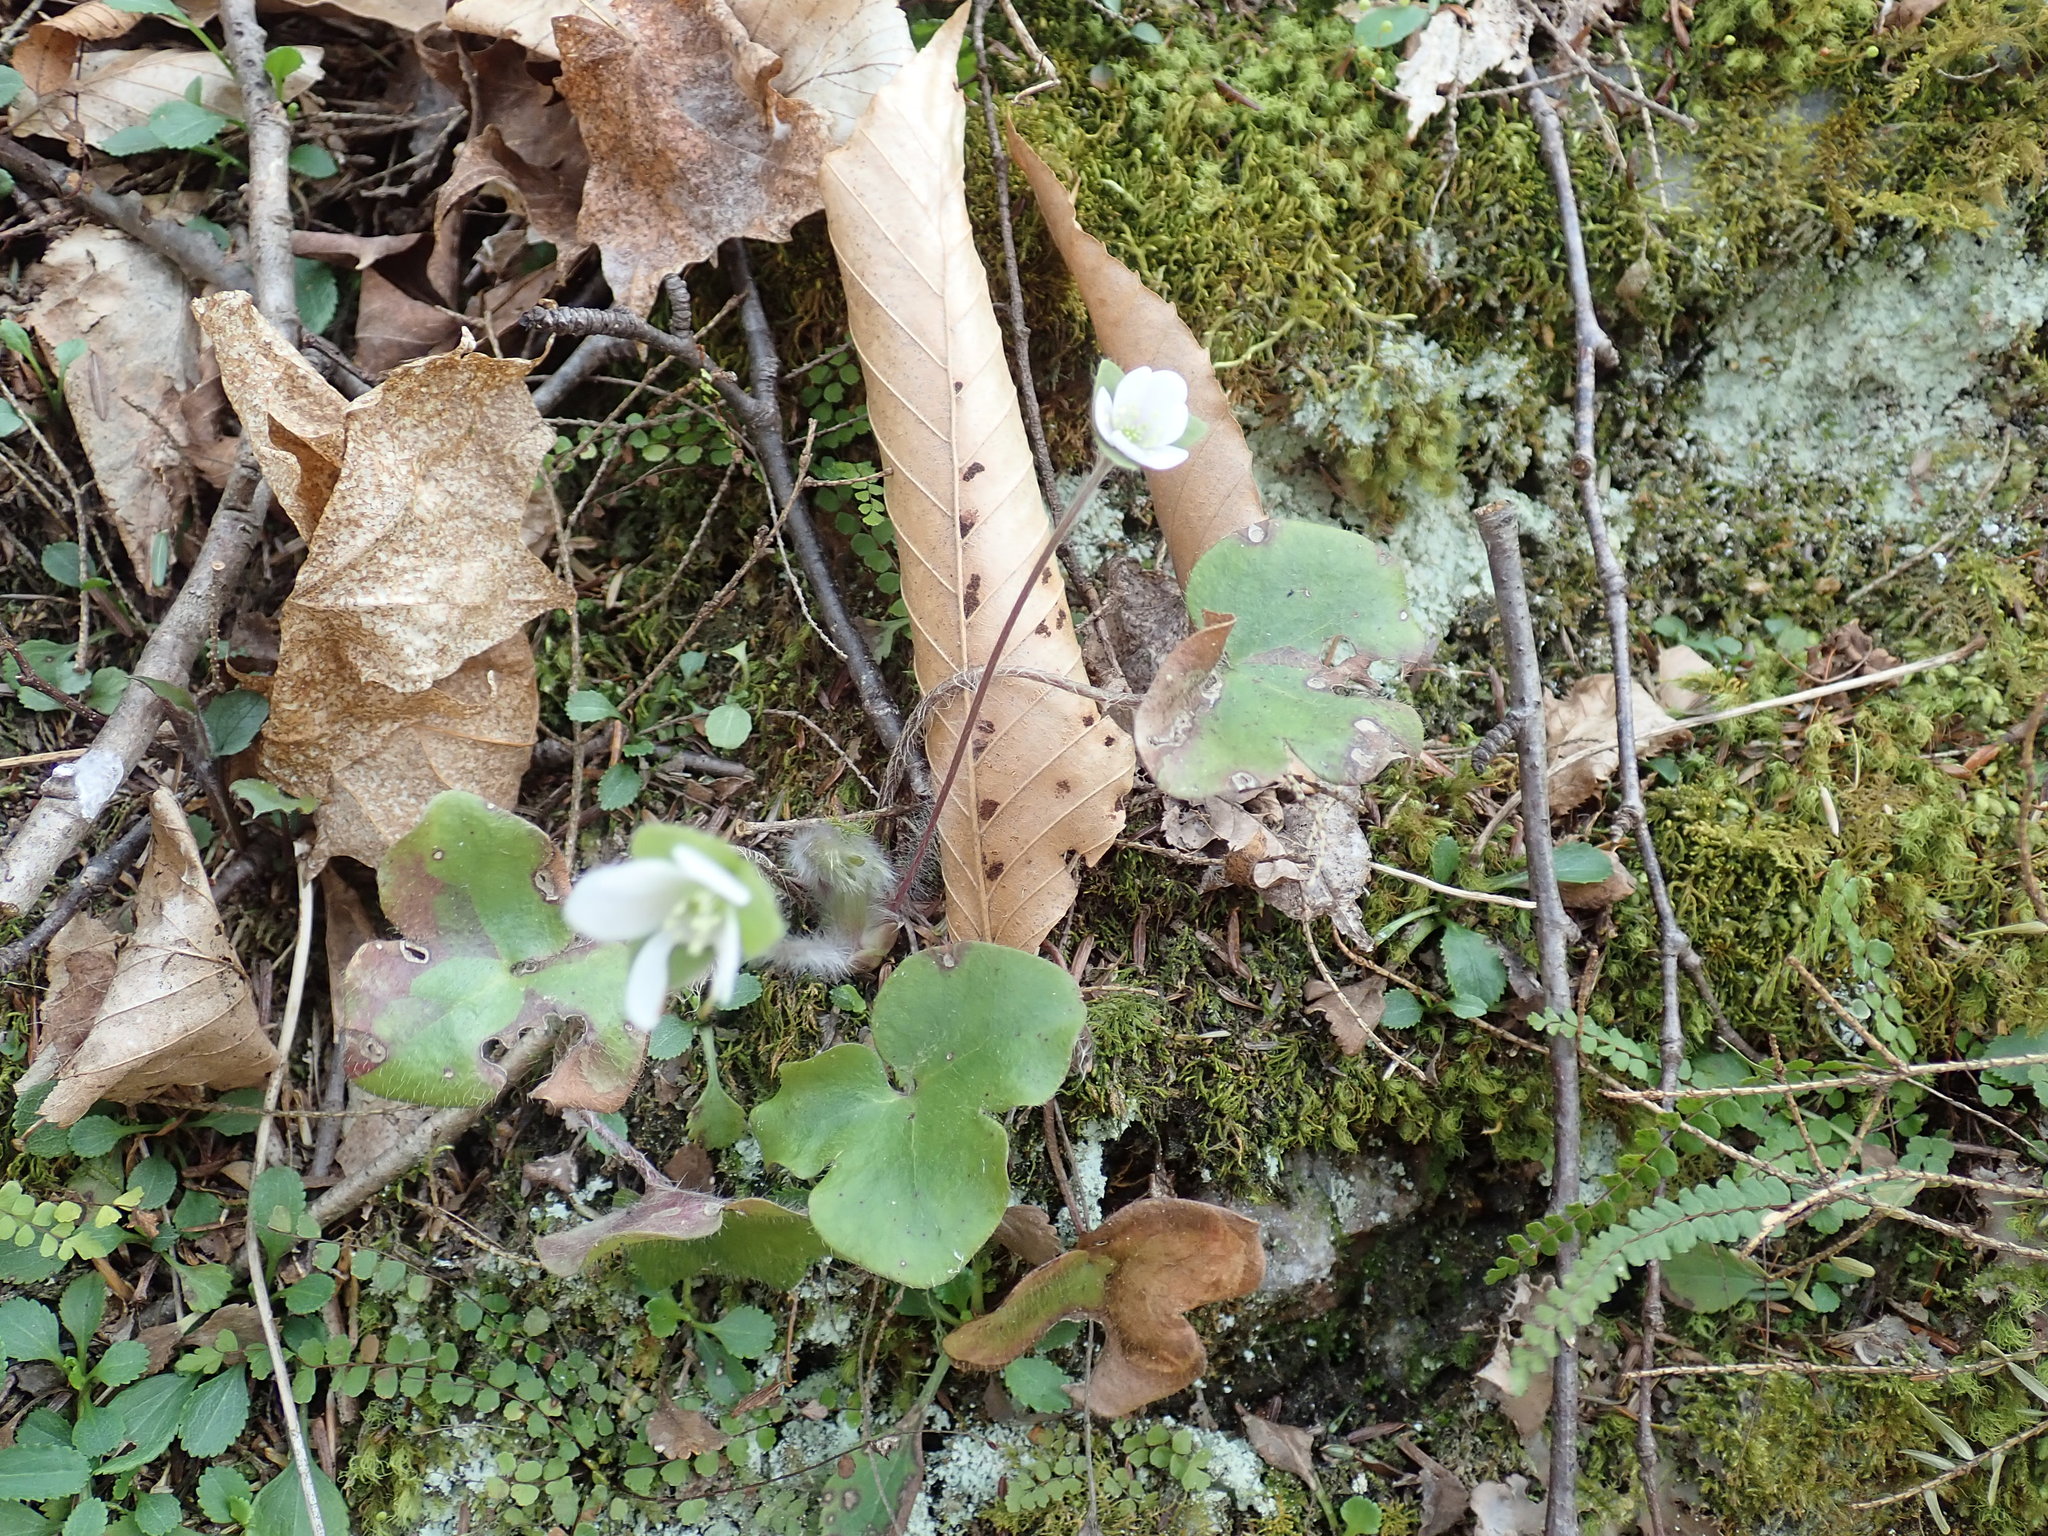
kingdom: Plantae
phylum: Tracheophyta
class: Magnoliopsida
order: Ranunculales
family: Ranunculaceae
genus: Hepatica
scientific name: Hepatica americana
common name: American hepatica
